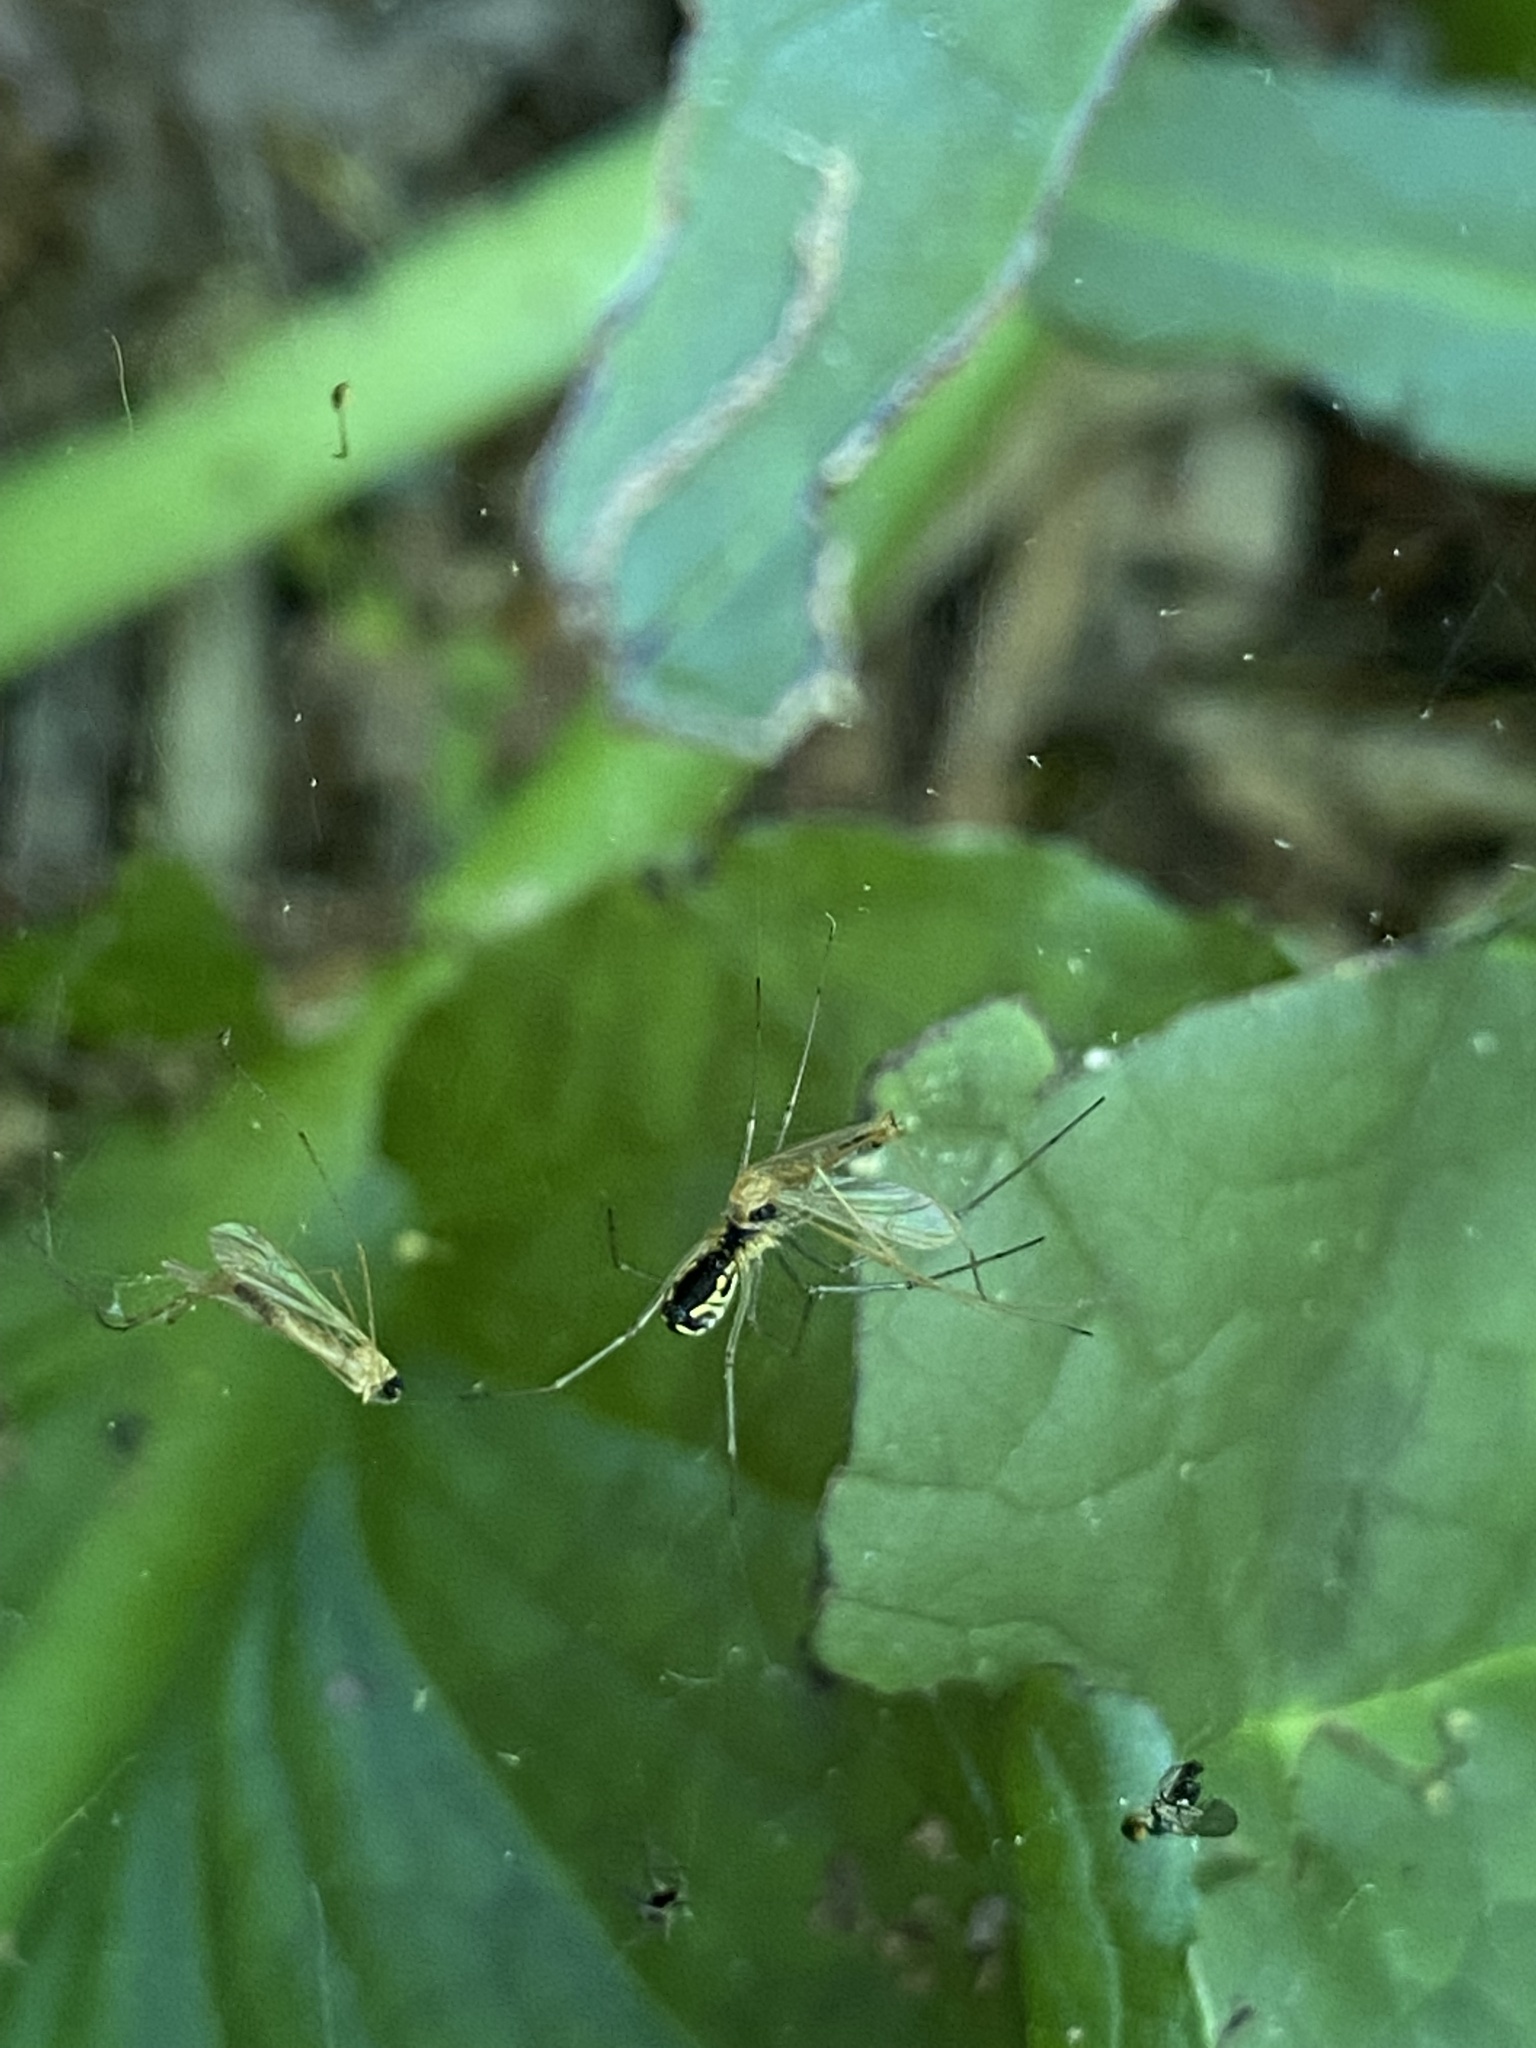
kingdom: Animalia
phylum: Arthropoda
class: Arachnida
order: Araneae
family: Linyphiidae
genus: Neriene
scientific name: Neriene radiata
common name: Filmy dome spider
